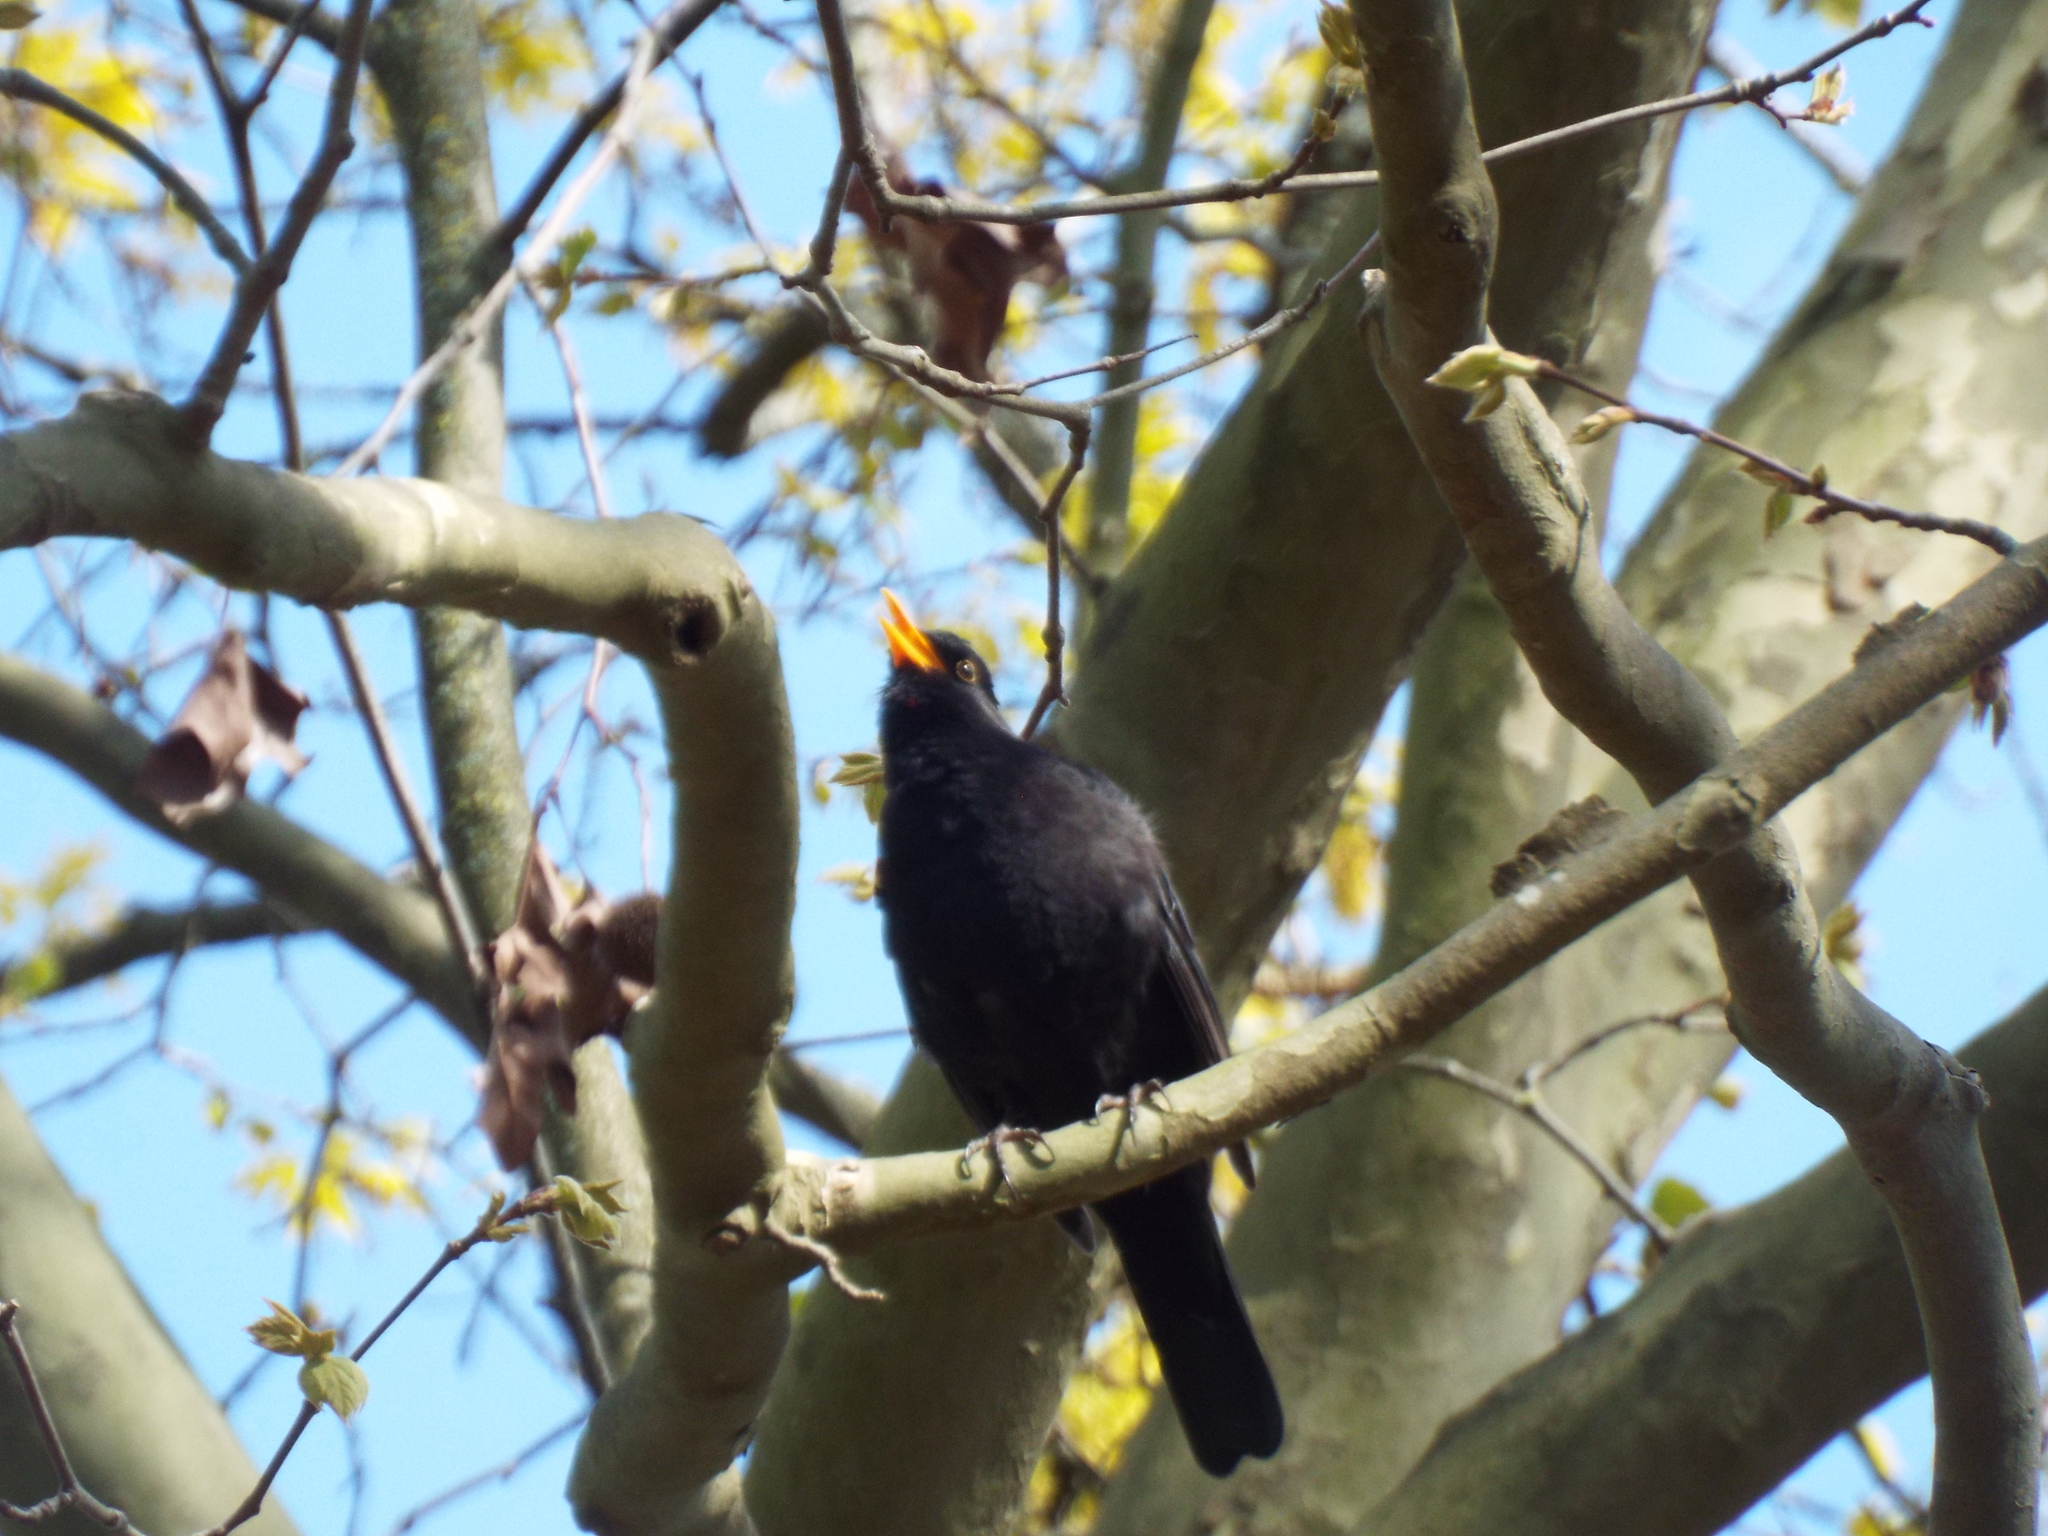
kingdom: Animalia
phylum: Chordata
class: Aves
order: Passeriformes
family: Turdidae
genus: Turdus
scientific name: Turdus merula
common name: Common blackbird
